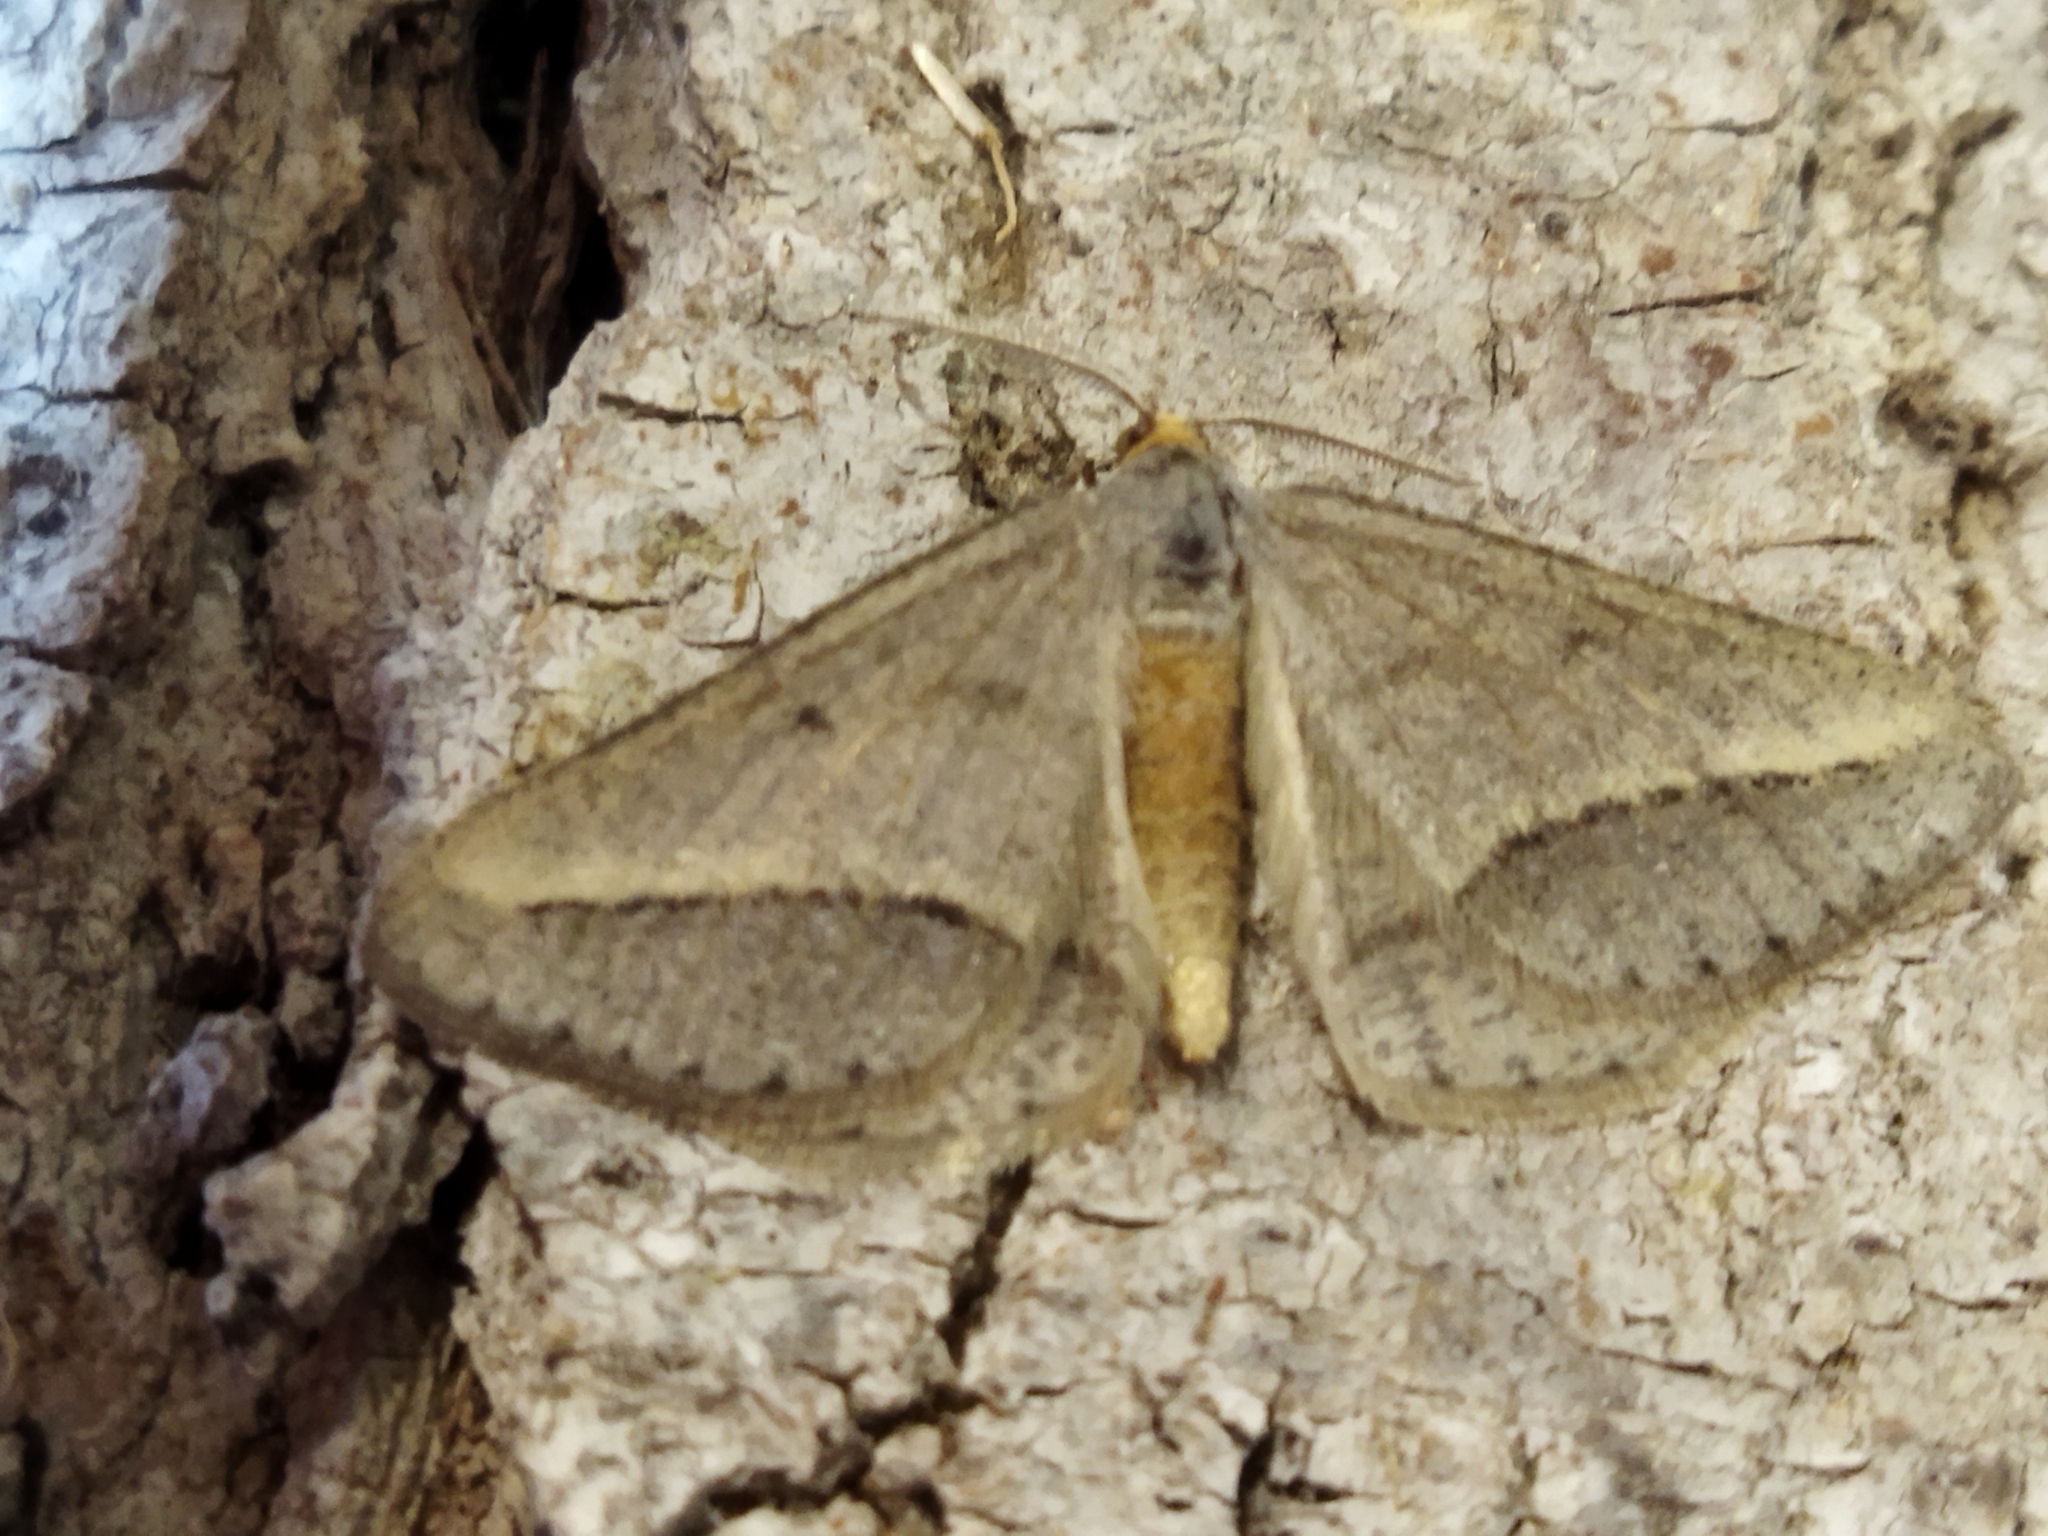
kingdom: Animalia
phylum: Arthropoda
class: Insecta
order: Lepidoptera
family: Geometridae
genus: Tephrina
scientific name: Tephrina arenacearia
